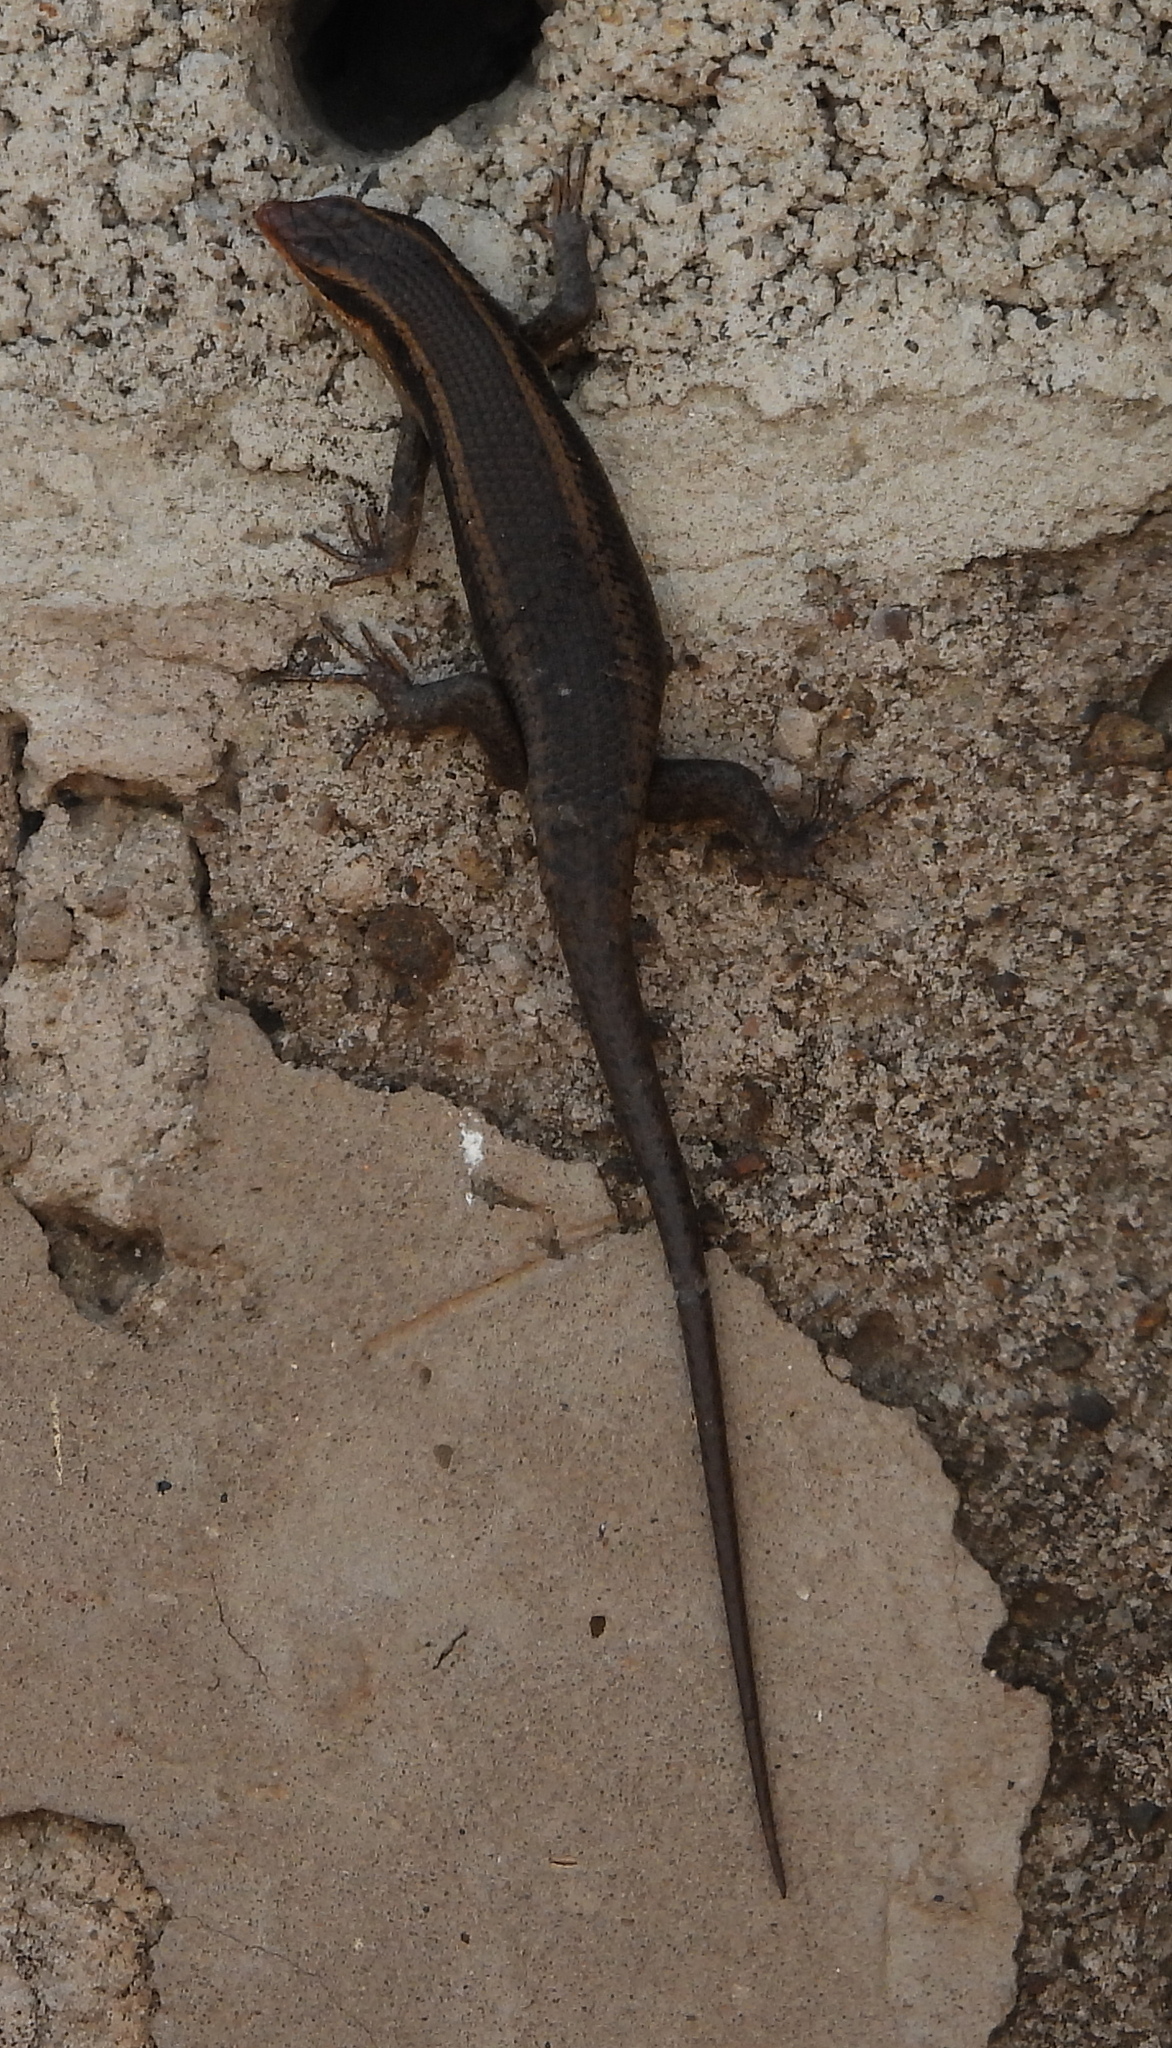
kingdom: Animalia
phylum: Chordata
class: Squamata
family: Scincidae
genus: Trachylepis
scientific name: Trachylepis wahlbergii
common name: Wahlberg’s striped skink
